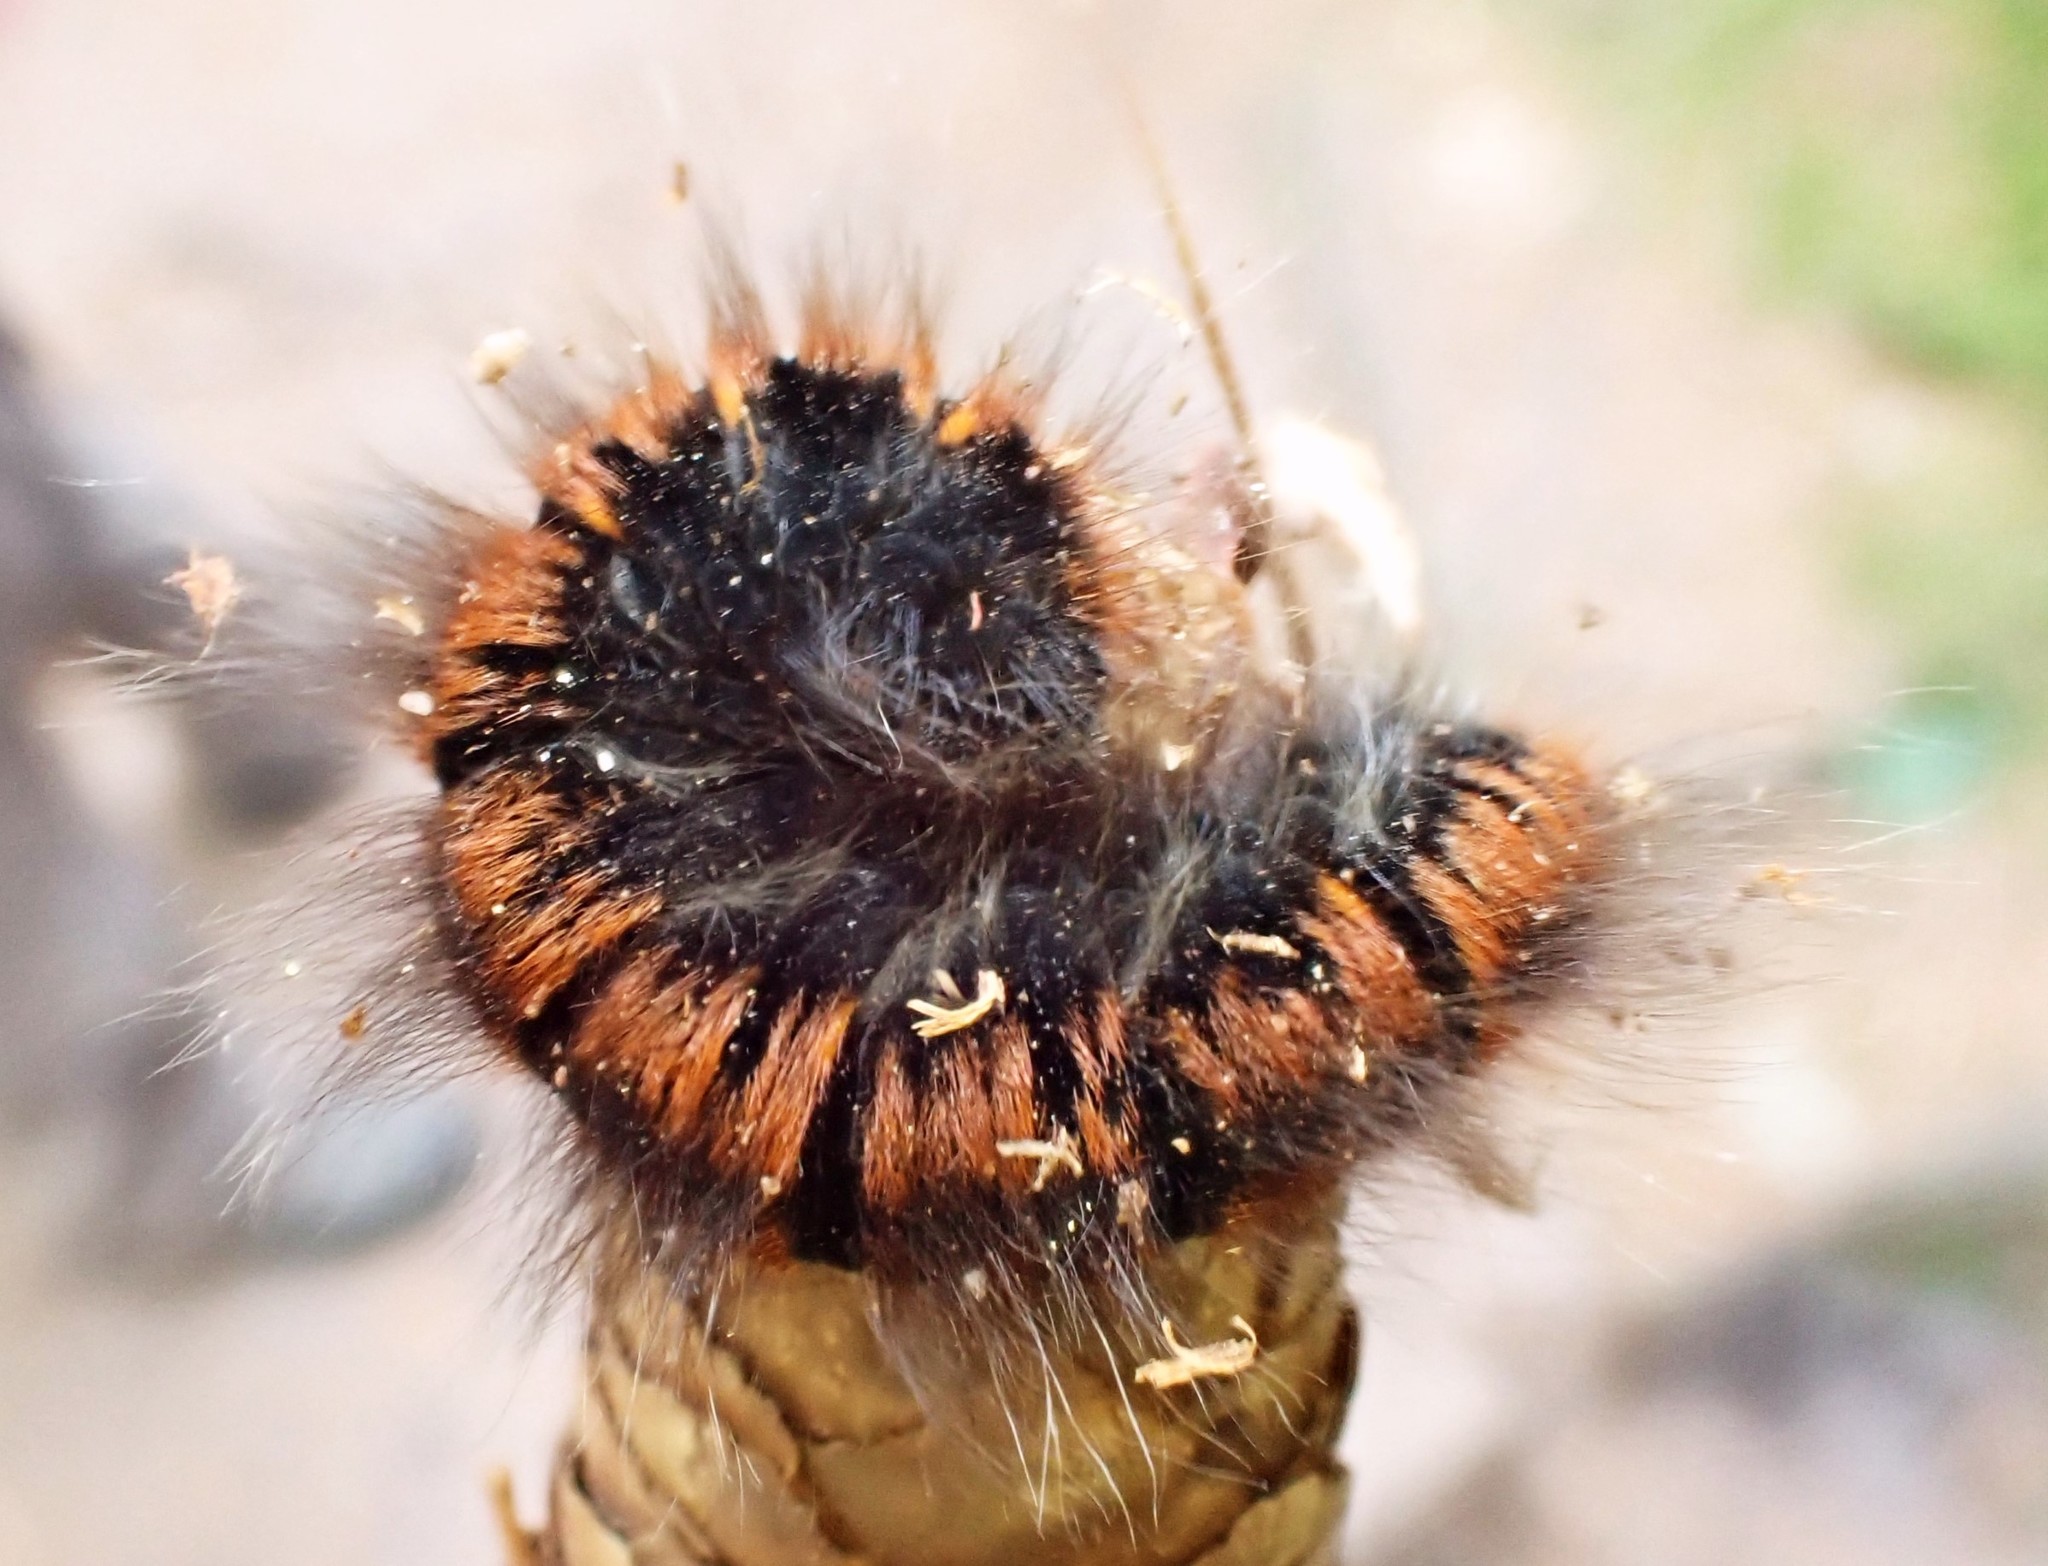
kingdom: Animalia
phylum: Arthropoda
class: Insecta
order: Lepidoptera
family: Lasiocampidae
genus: Macrothylacia
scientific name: Macrothylacia rubi
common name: Fox moth
